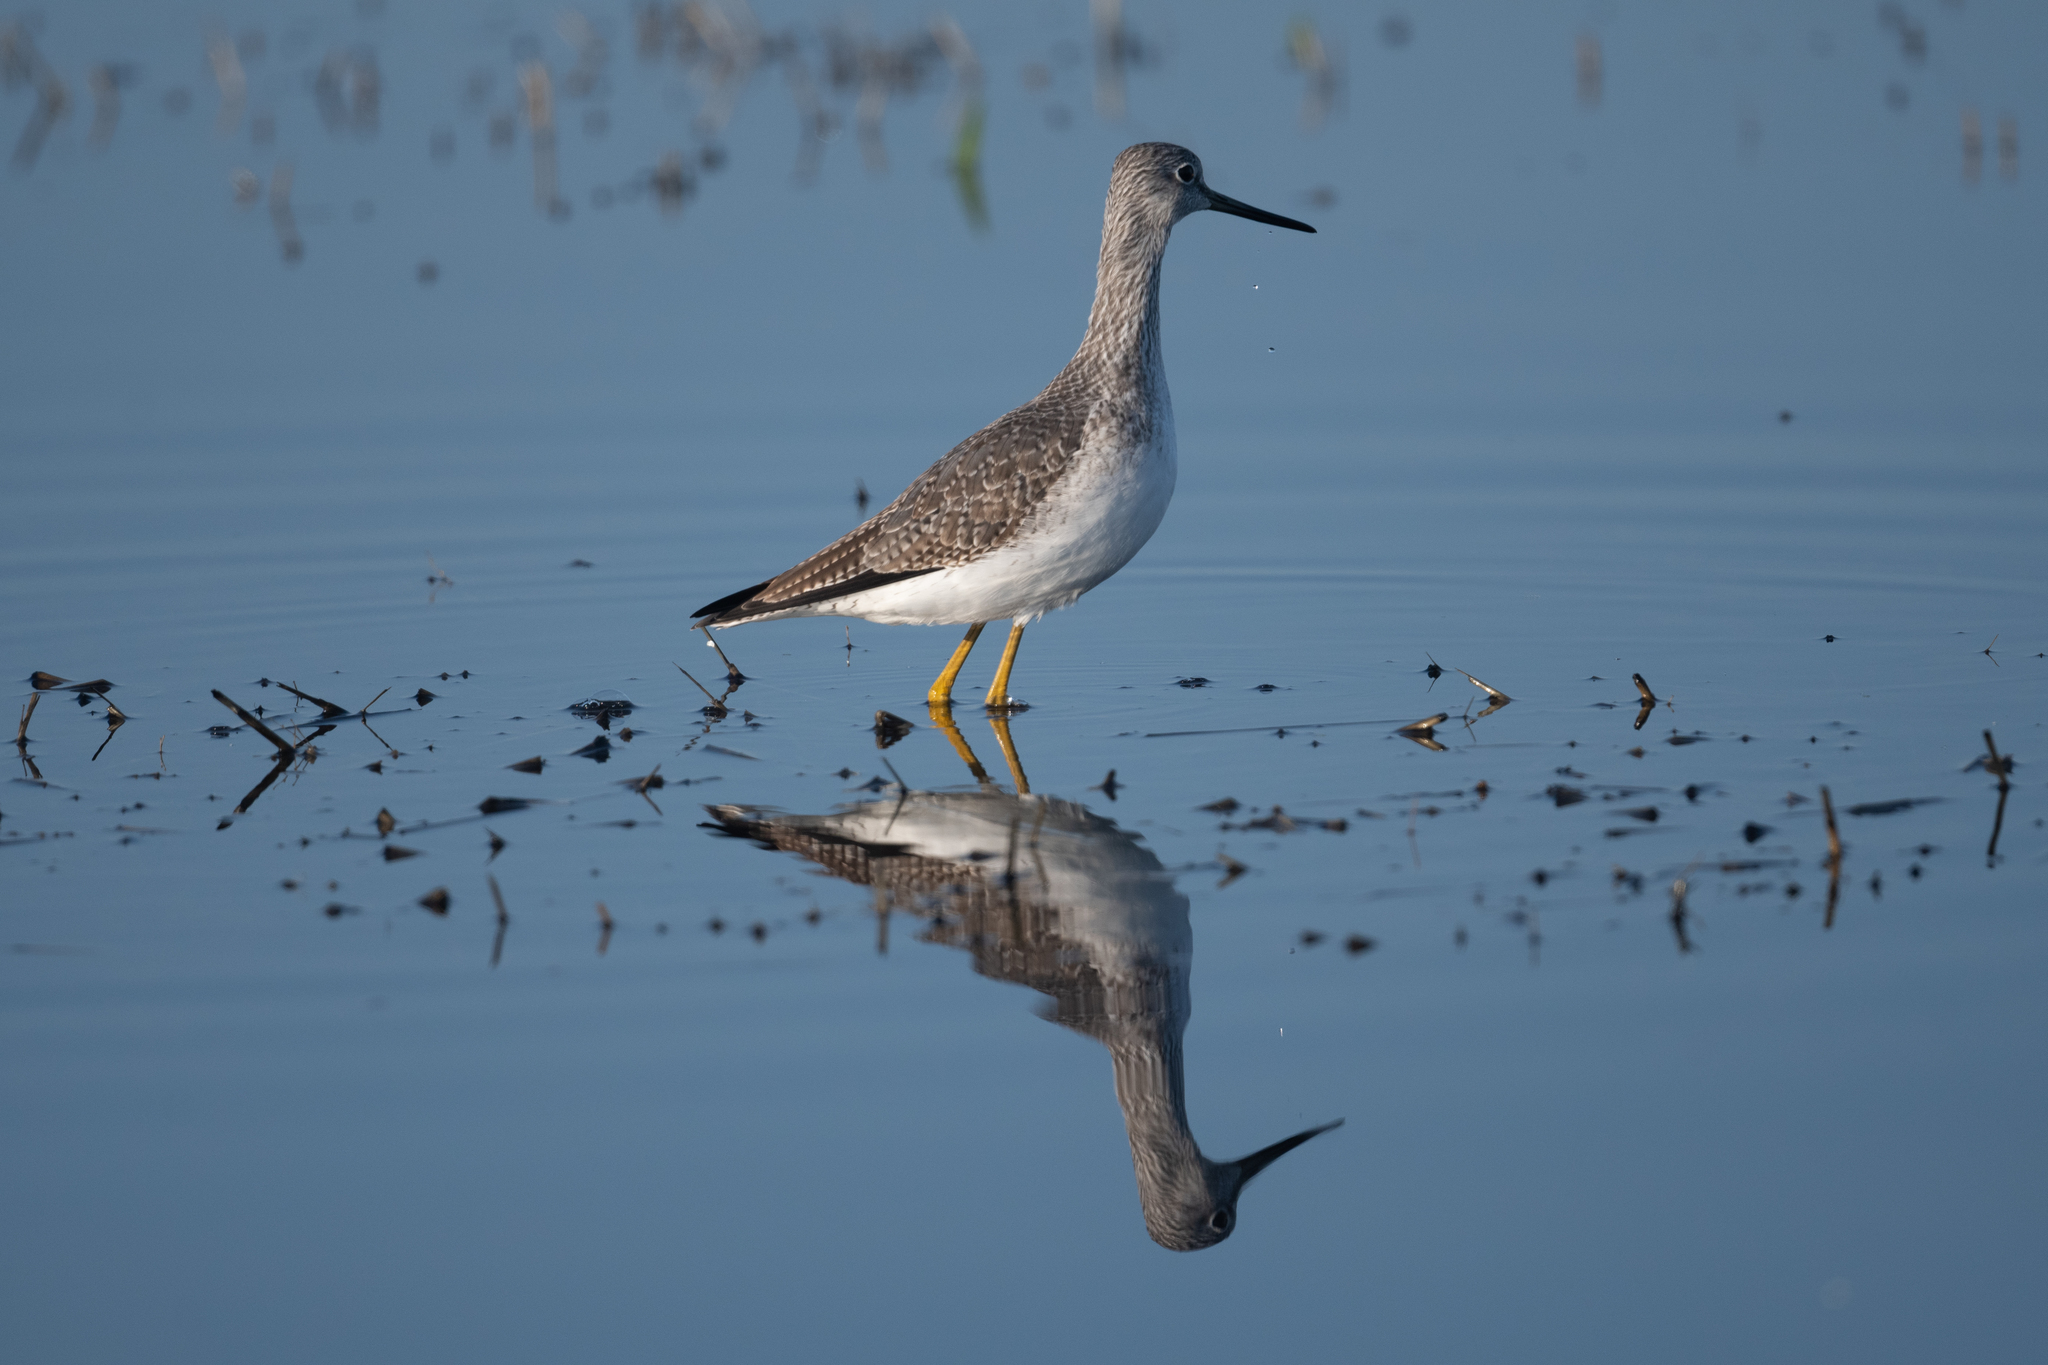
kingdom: Animalia
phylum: Chordata
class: Aves
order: Charadriiformes
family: Scolopacidae
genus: Tringa
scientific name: Tringa melanoleuca
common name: Greater yellowlegs
